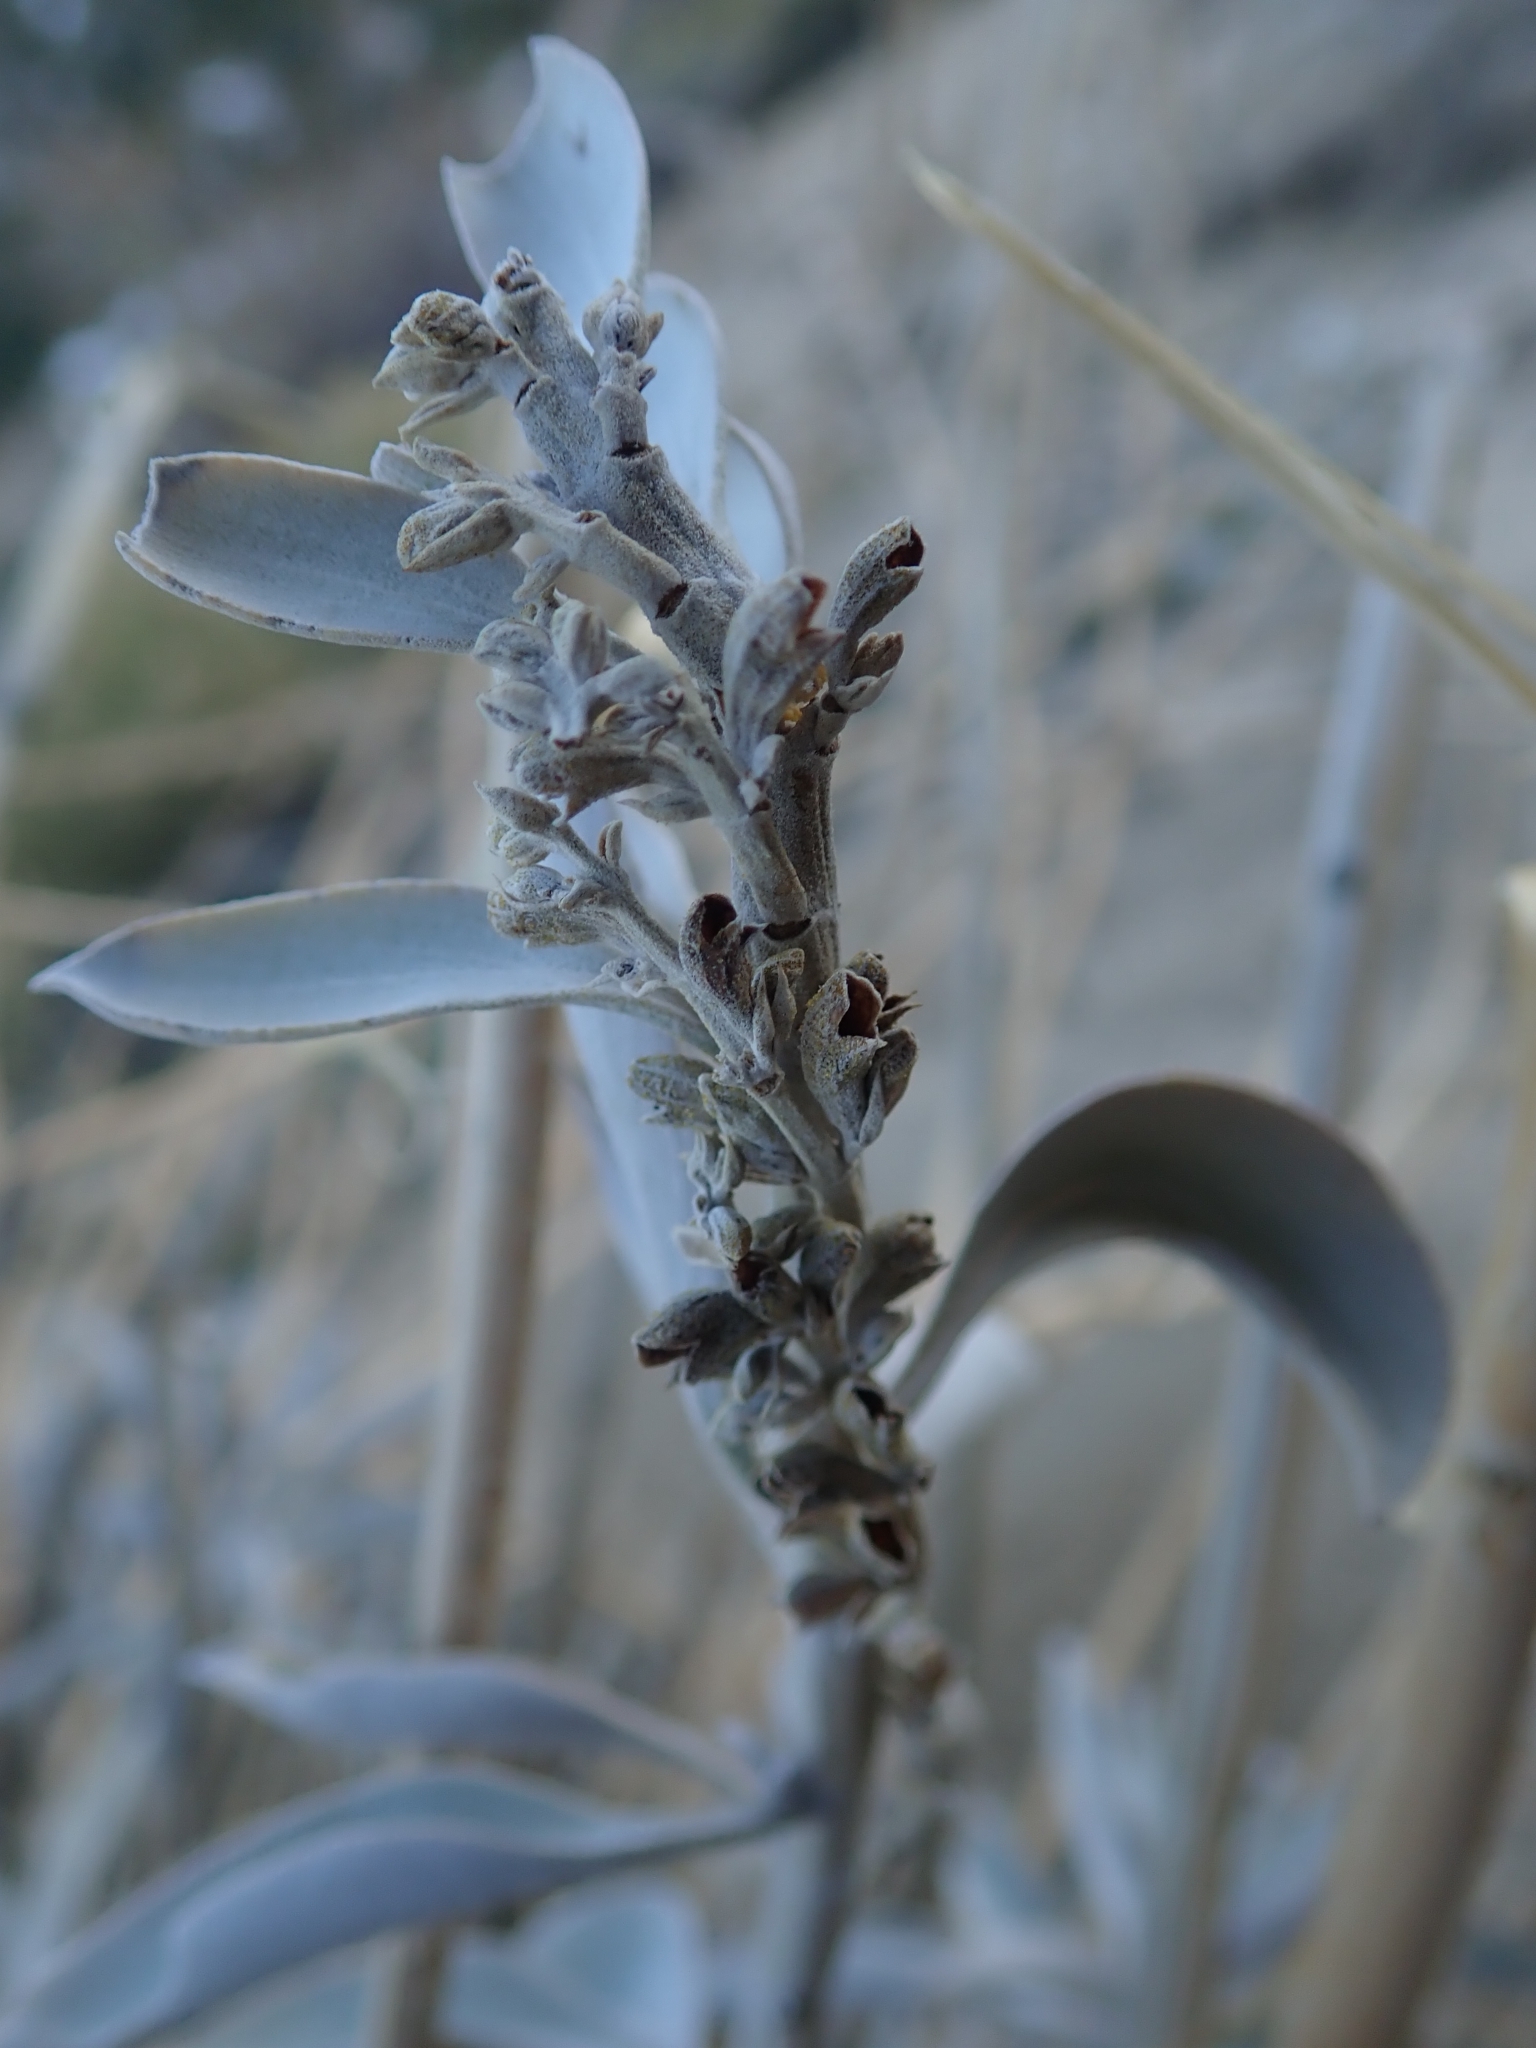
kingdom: Plantae
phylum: Tracheophyta
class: Magnoliopsida
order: Lamiales
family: Lamiaceae
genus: Salvia
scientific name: Salvia apiana
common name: White sage
